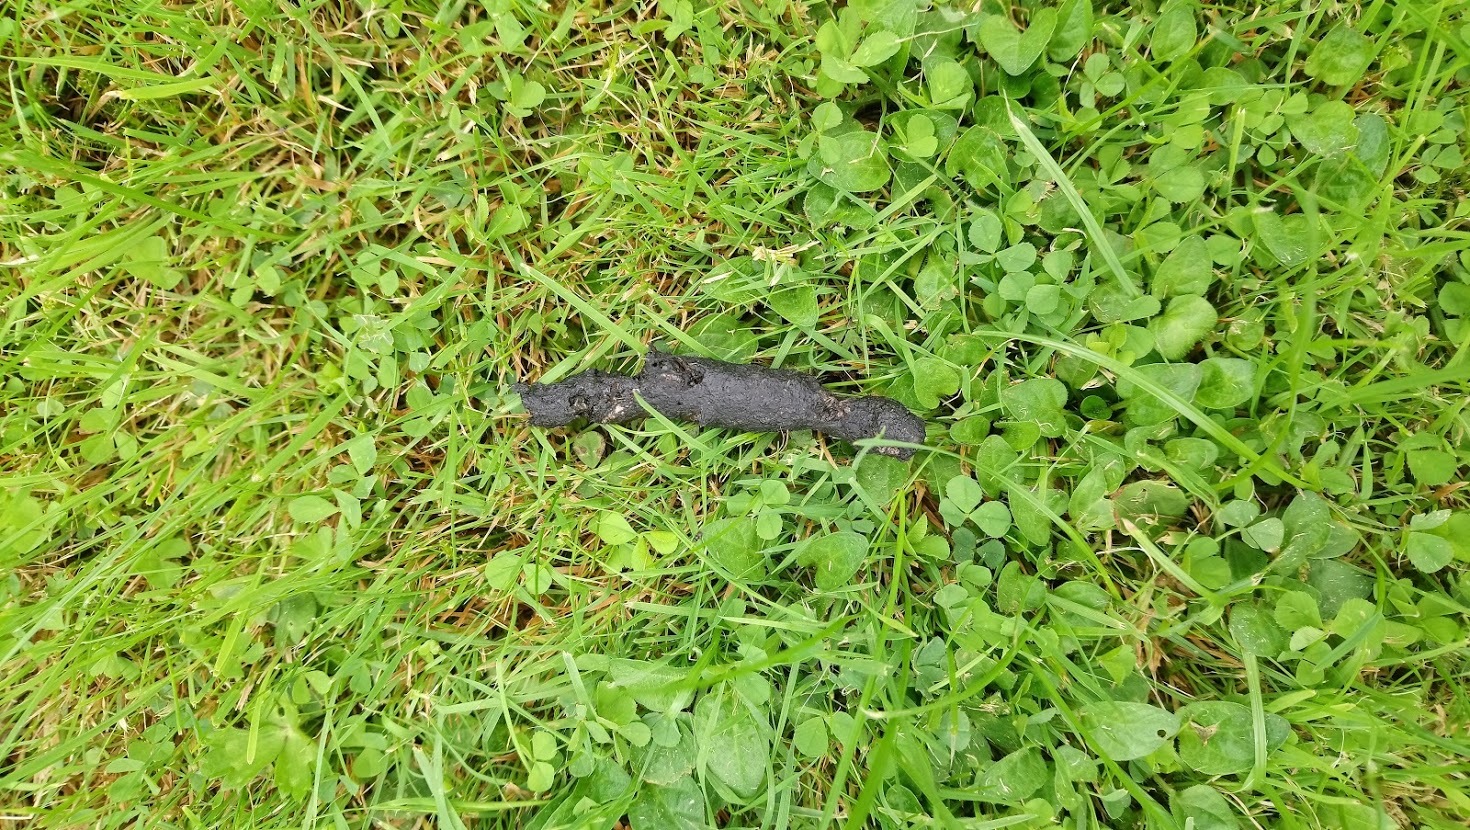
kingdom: Animalia
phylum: Chordata
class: Mammalia
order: Erinaceomorpha
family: Erinaceidae
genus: Erinaceus
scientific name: Erinaceus europaeus
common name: West european hedgehog
